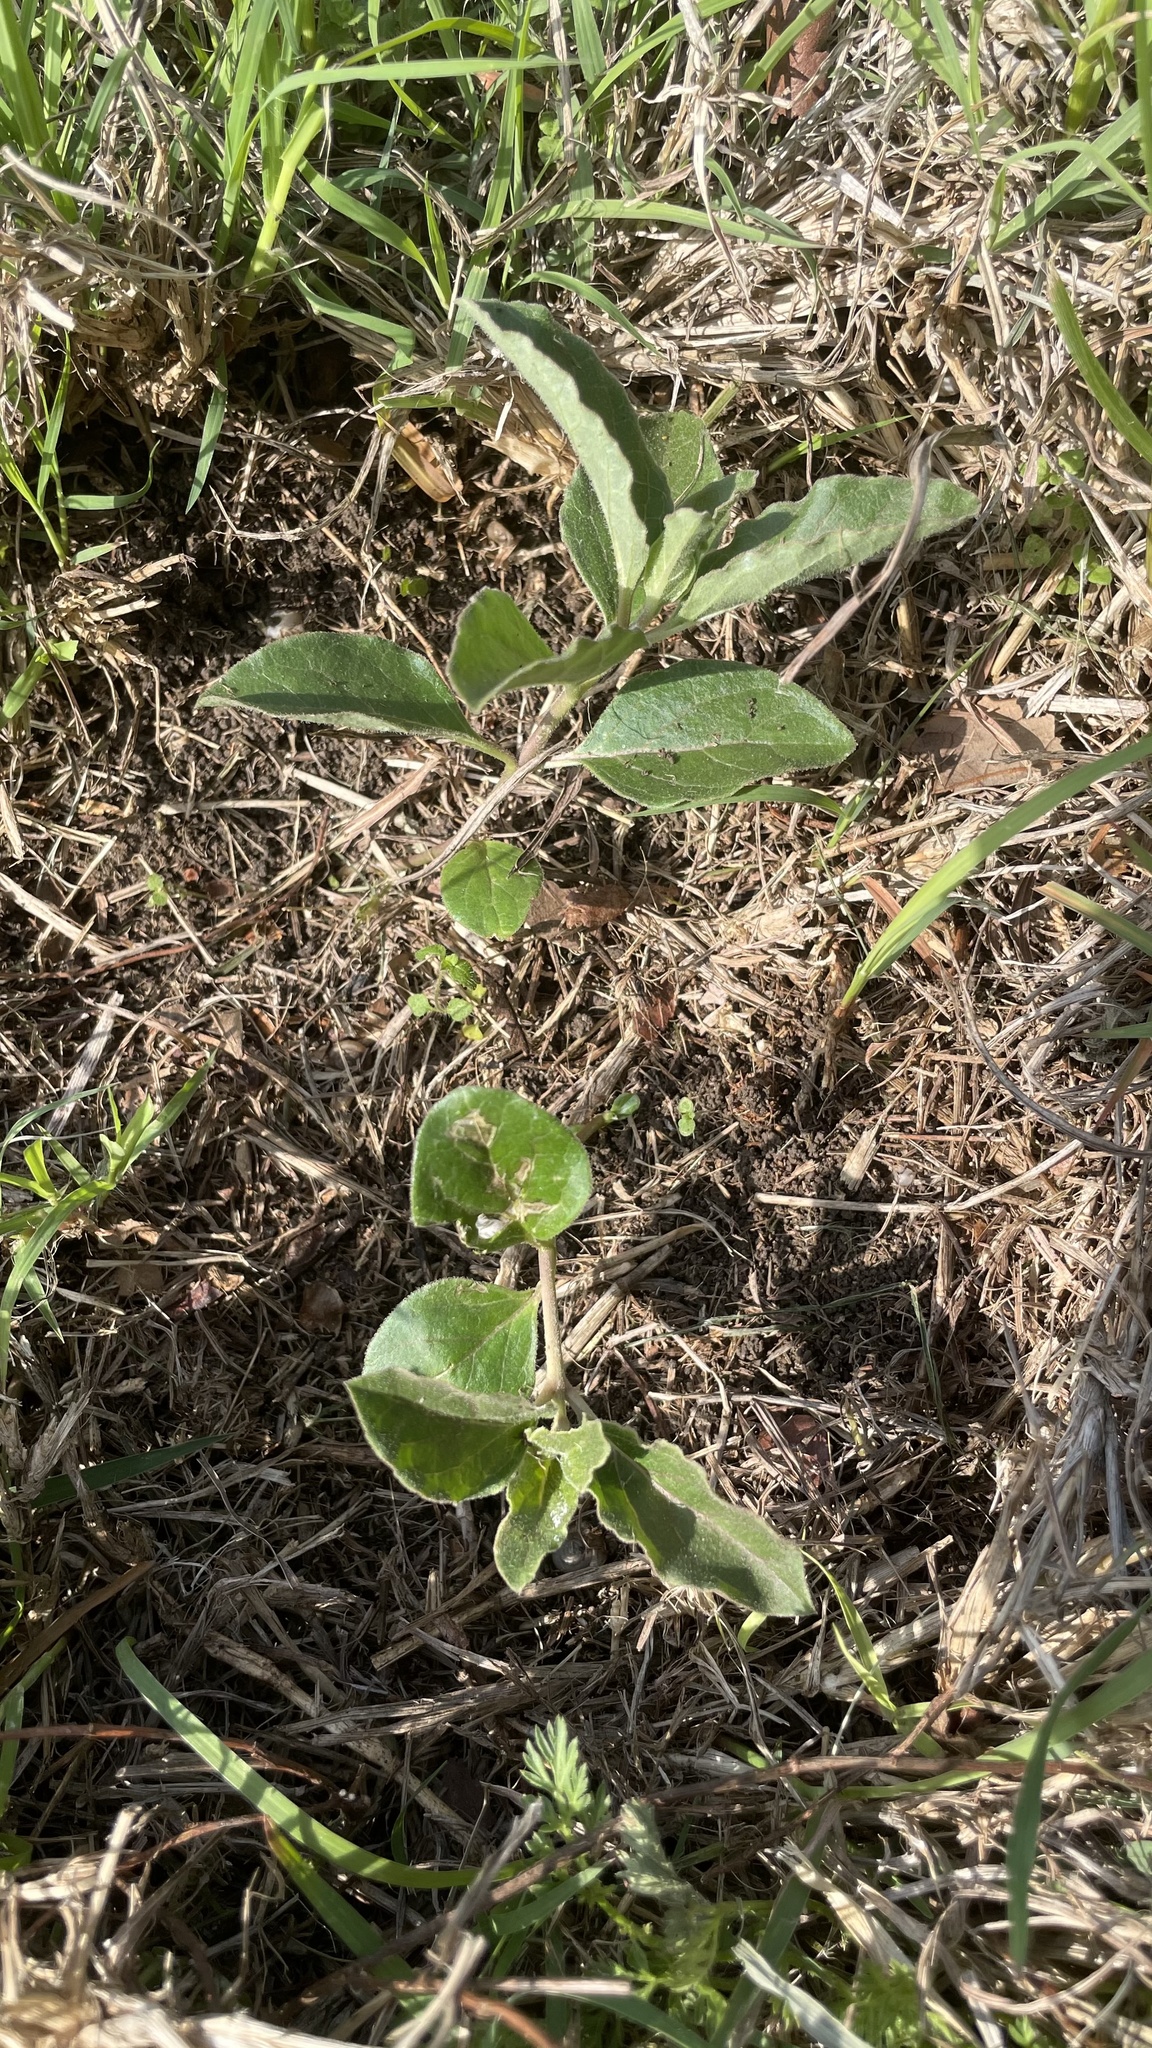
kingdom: Plantae
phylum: Tracheophyta
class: Magnoliopsida
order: Gentianales
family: Apocynaceae
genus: Asclepias
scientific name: Asclepias oenotheroides
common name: Zizotes milkweed
